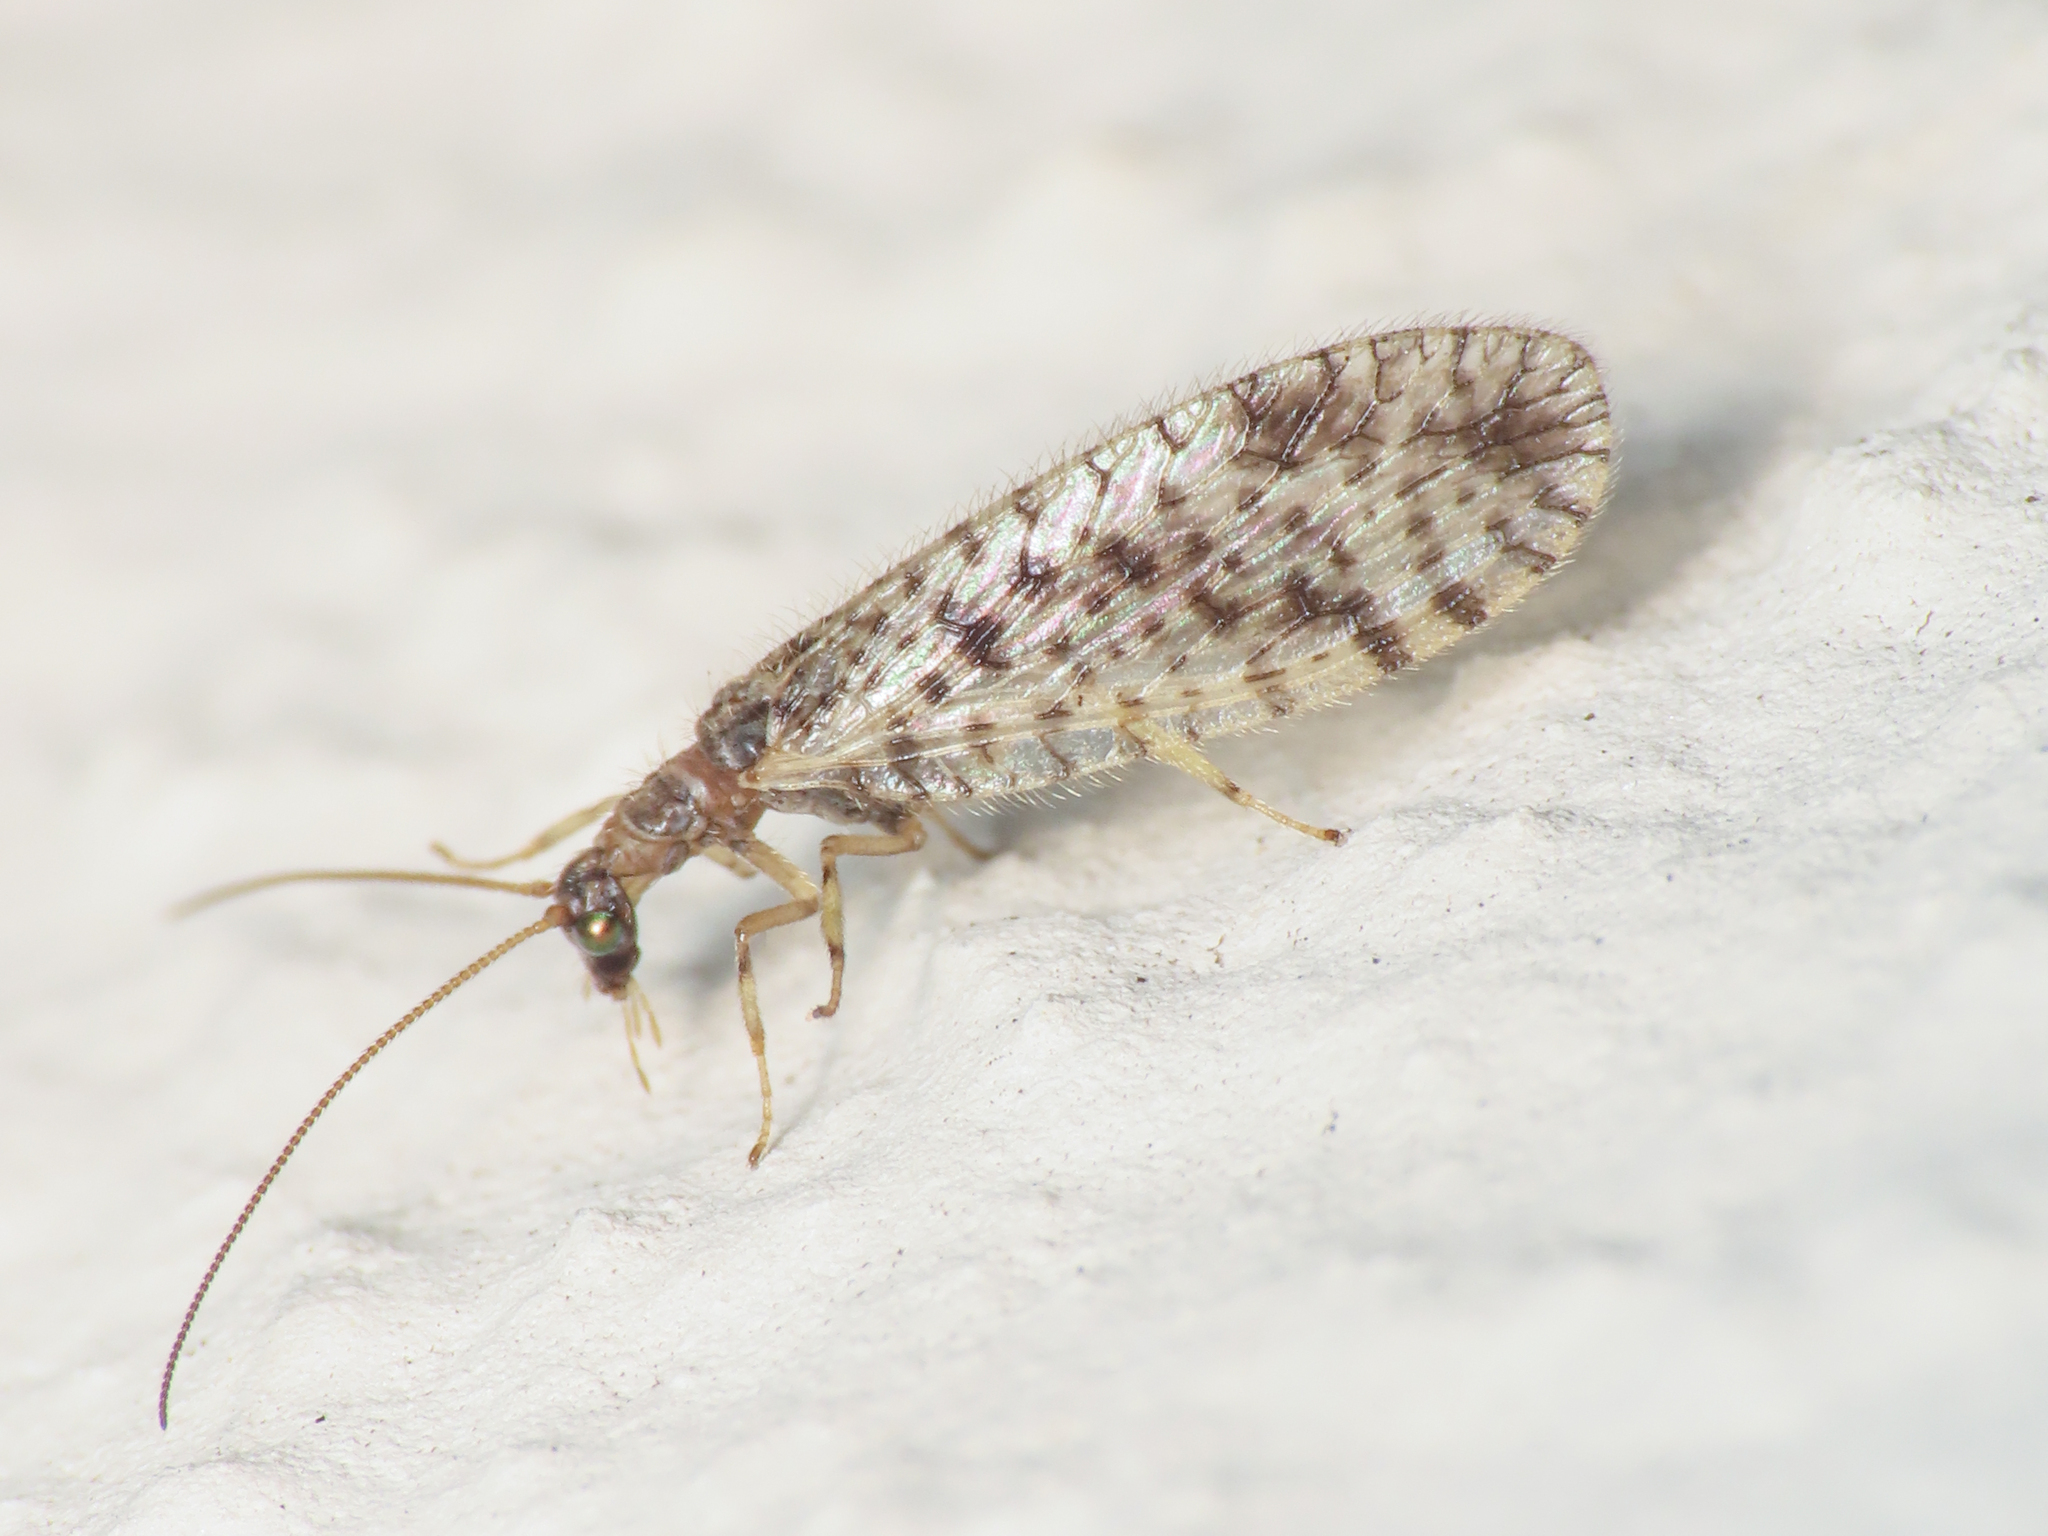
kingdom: Animalia
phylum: Arthropoda
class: Insecta
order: Neuroptera
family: Hemerobiidae
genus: Micromus
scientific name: Micromus variegatus
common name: Brown lacewing
